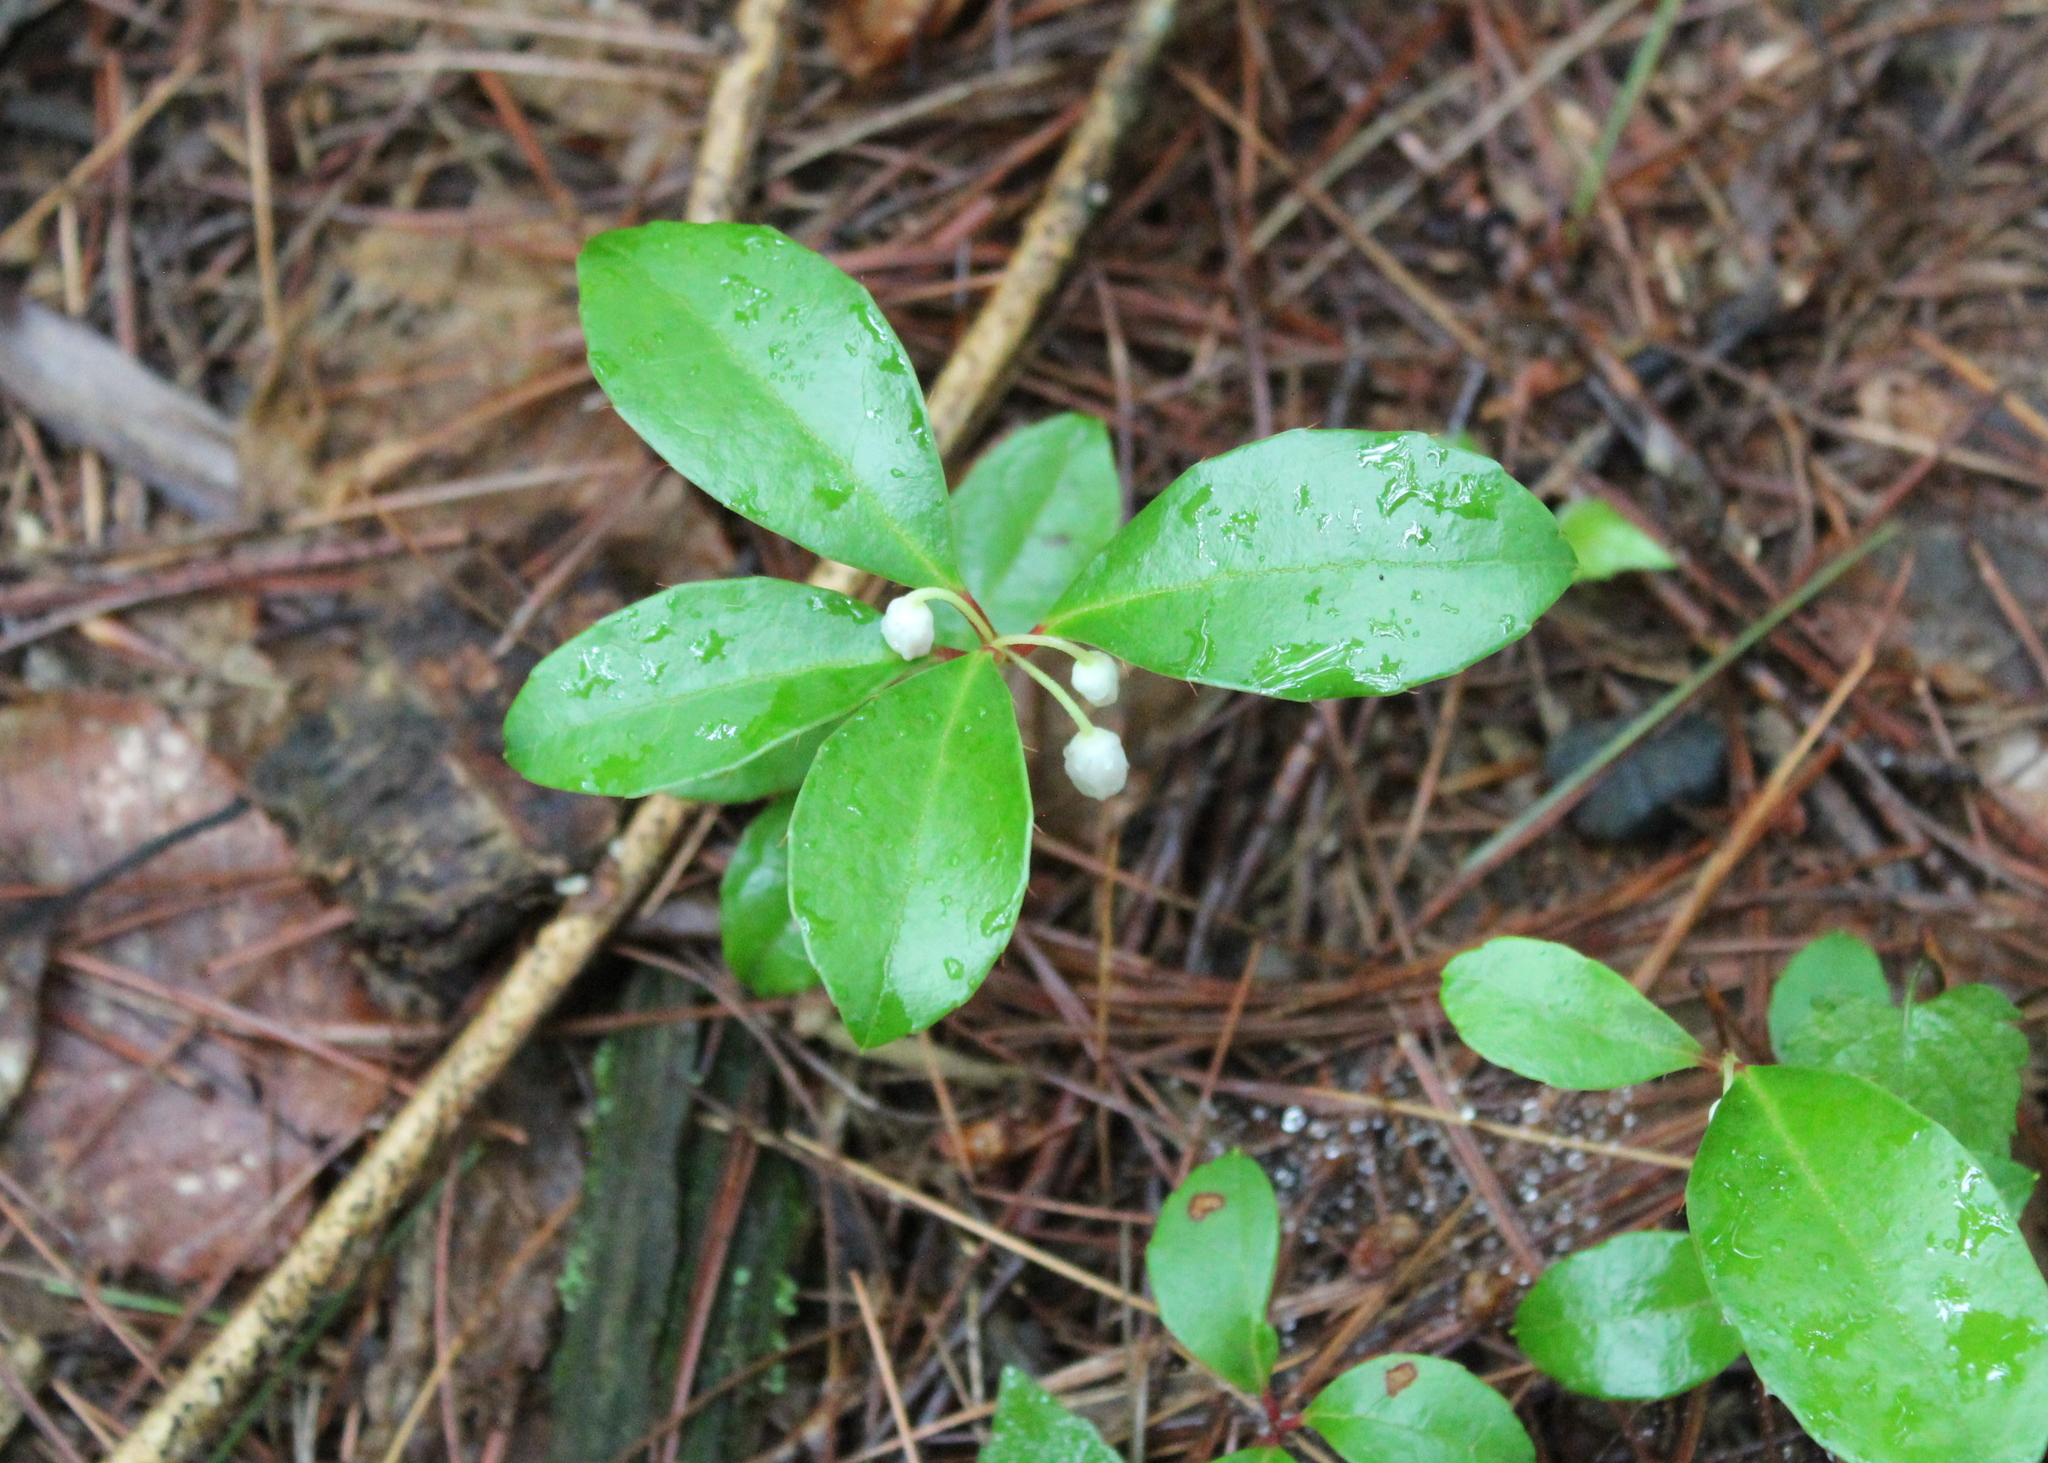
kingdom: Plantae
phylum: Tracheophyta
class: Magnoliopsida
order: Ericales
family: Ericaceae
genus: Gaultheria
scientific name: Gaultheria procumbens
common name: Checkerberry
